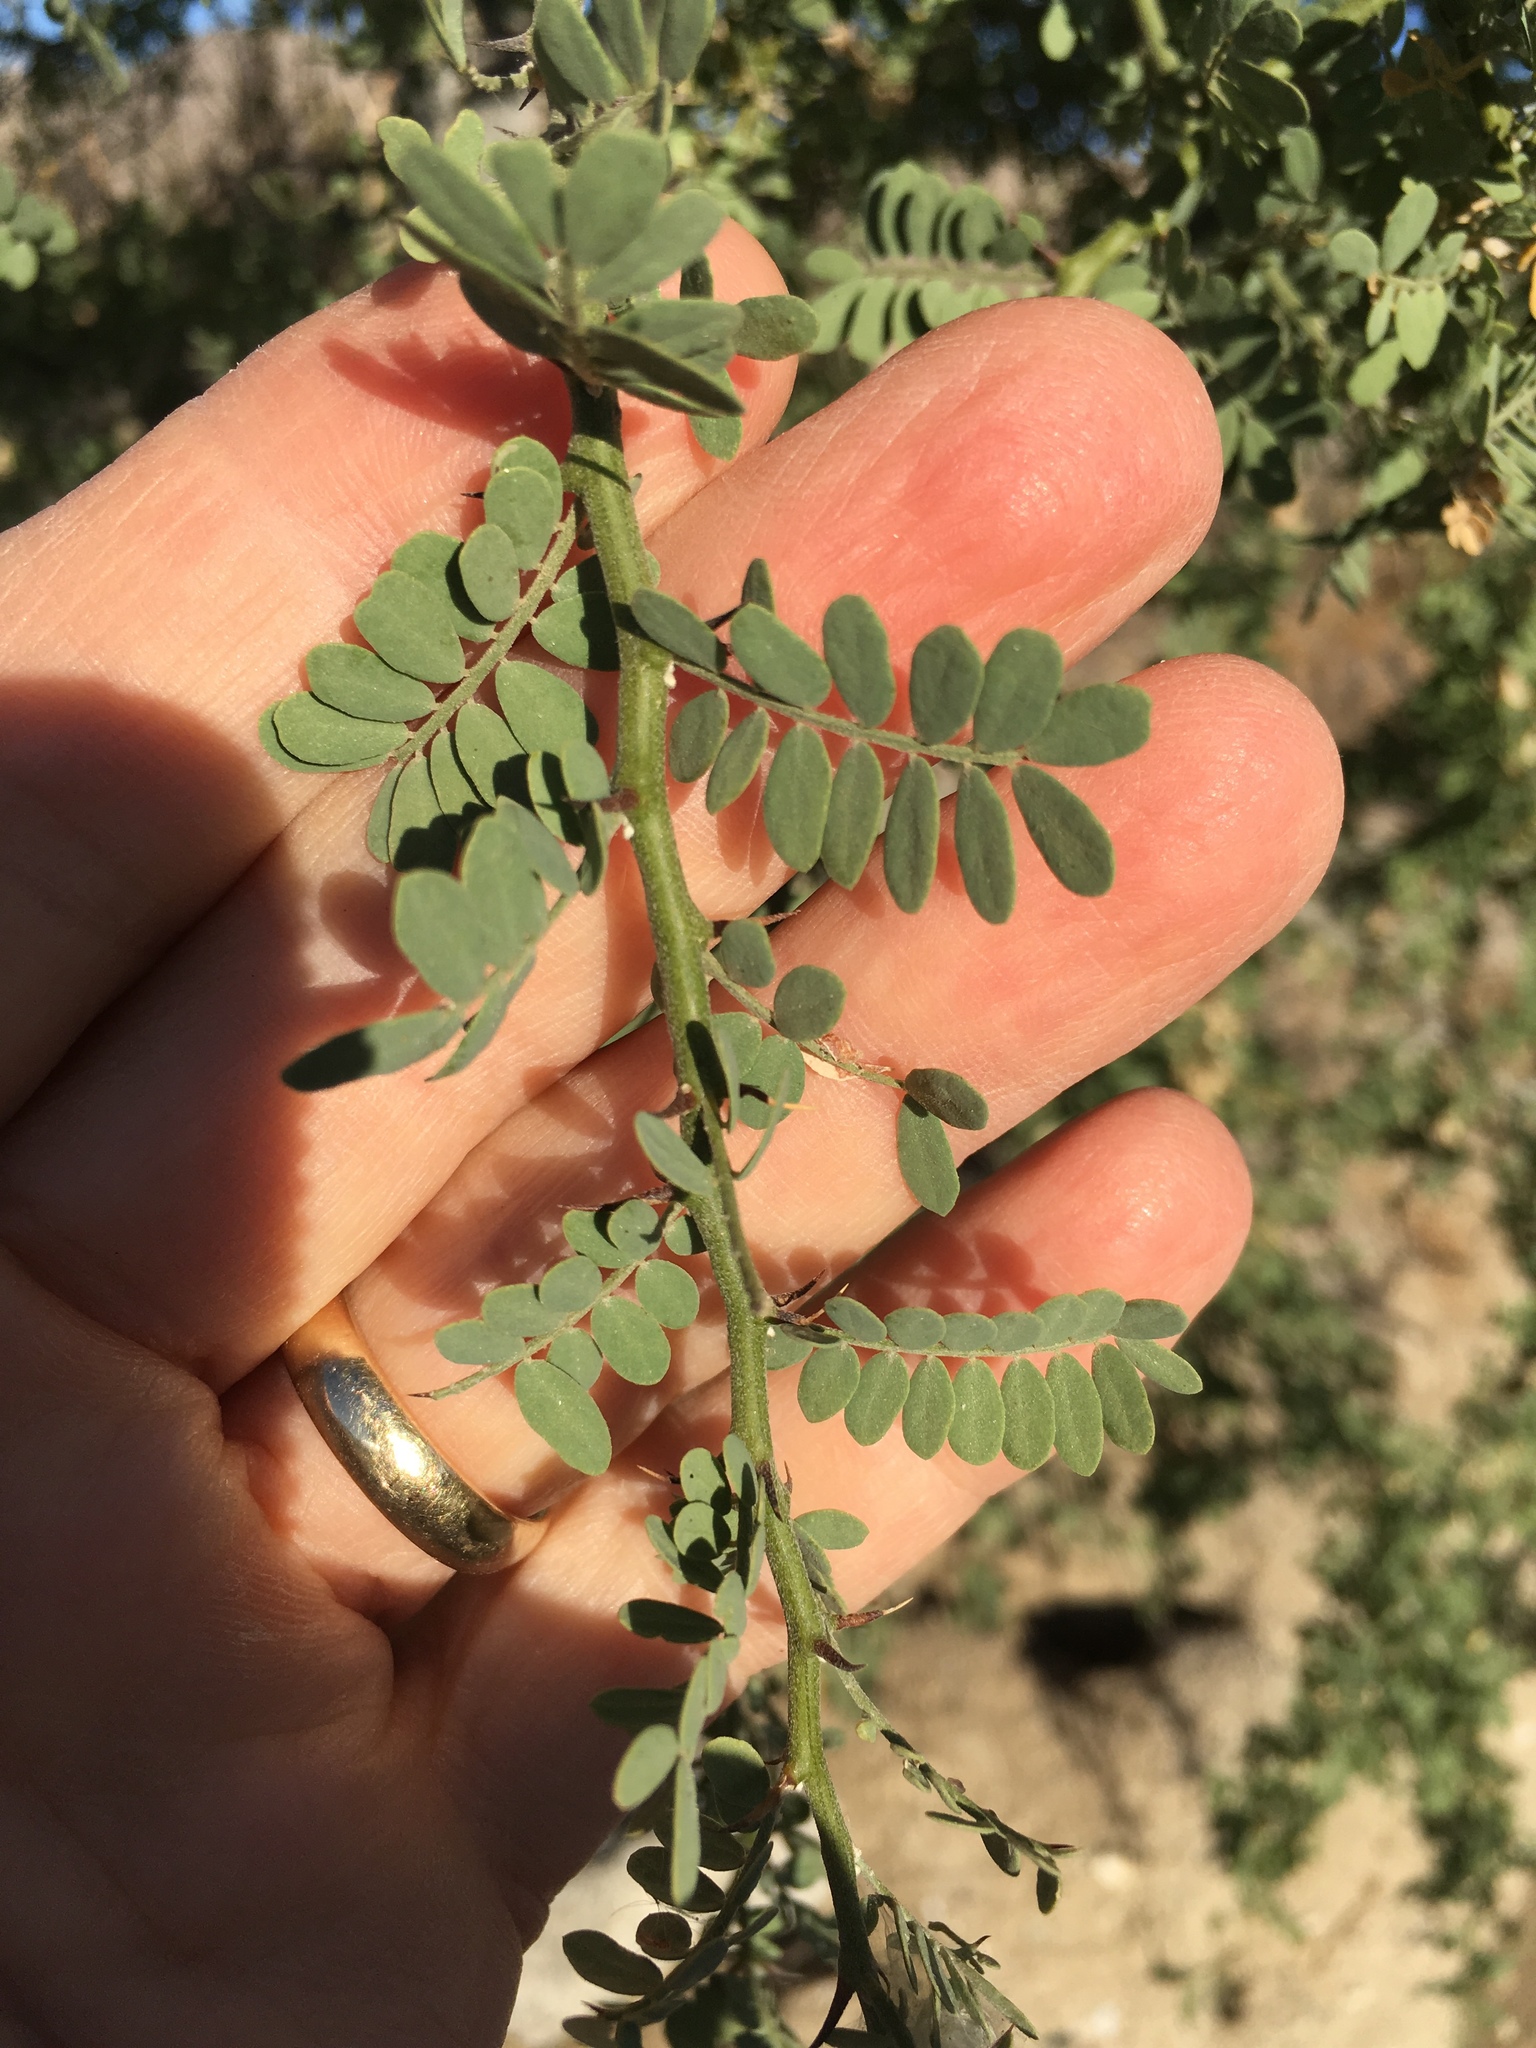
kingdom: Plantae
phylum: Tracheophyta
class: Magnoliopsida
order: Fabales
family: Fabaceae
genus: Olneya
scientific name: Olneya tesota
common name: Desert ironwood
